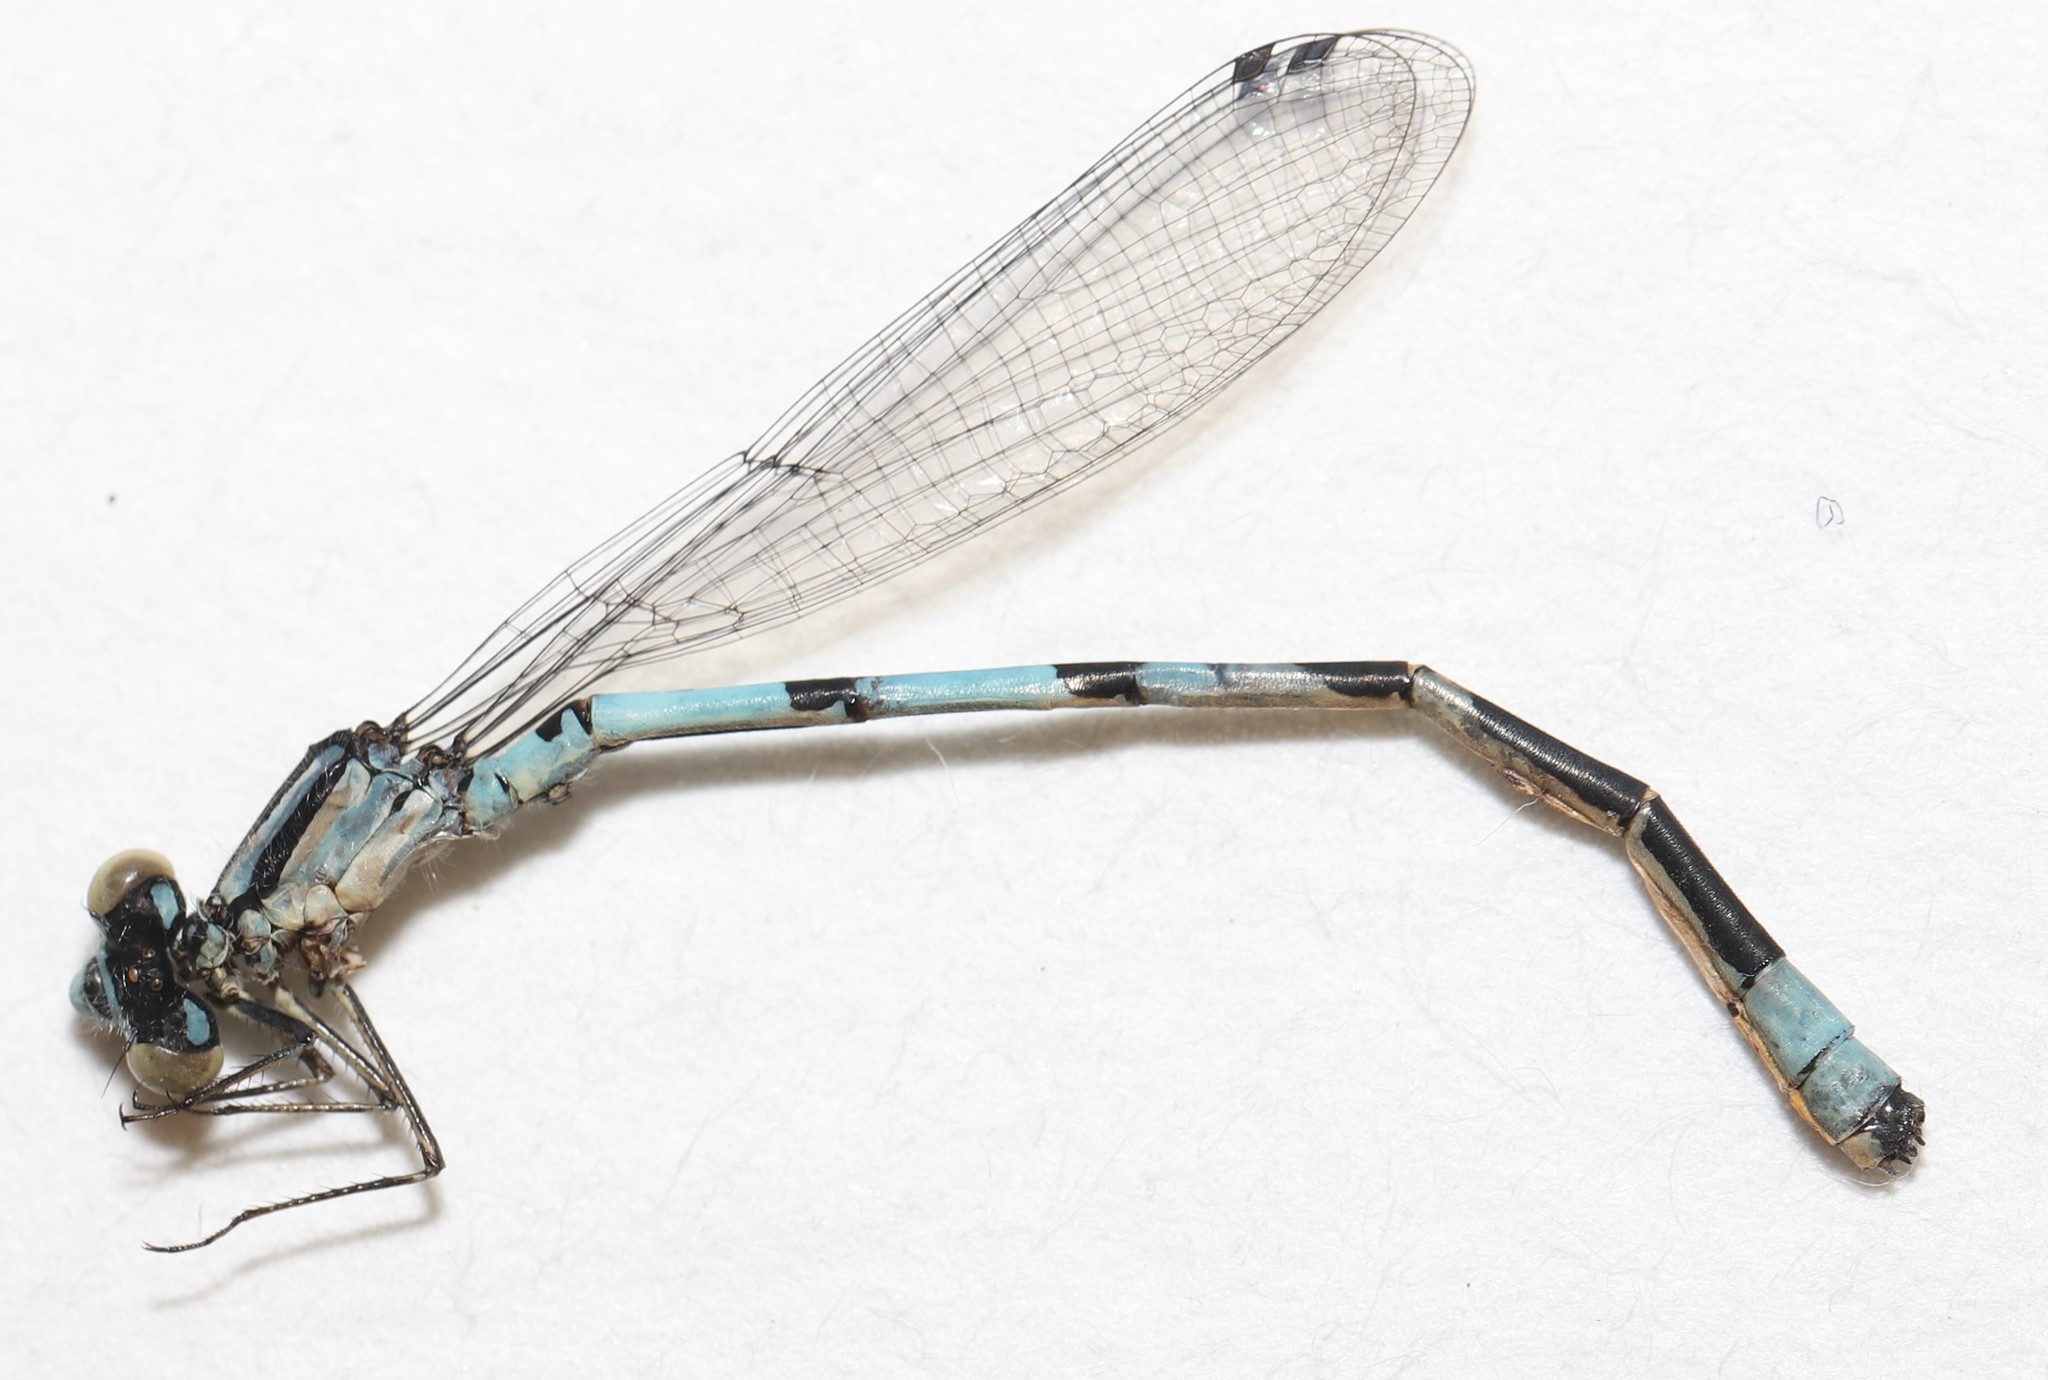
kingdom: Animalia
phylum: Arthropoda
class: Insecta
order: Odonata
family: Coenagrionidae
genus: Enallagma
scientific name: Enallagma hageni
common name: Hagen's bluet
